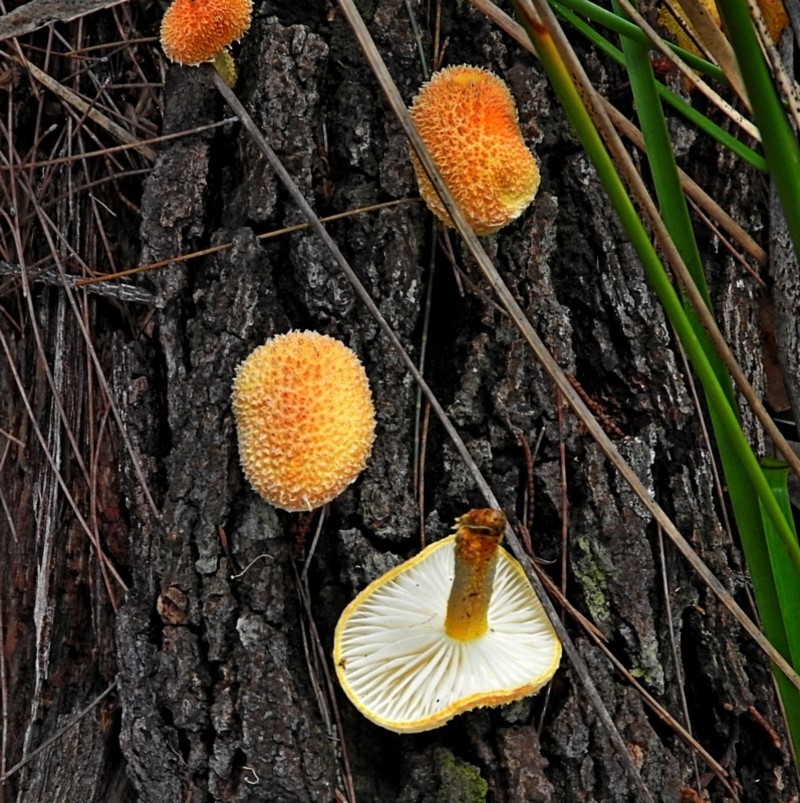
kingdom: Fungi
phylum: Basidiomycota
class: Agaricomycetes
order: Agaricales
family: Physalacriaceae
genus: Cyptotrama
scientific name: Cyptotrama asprata
